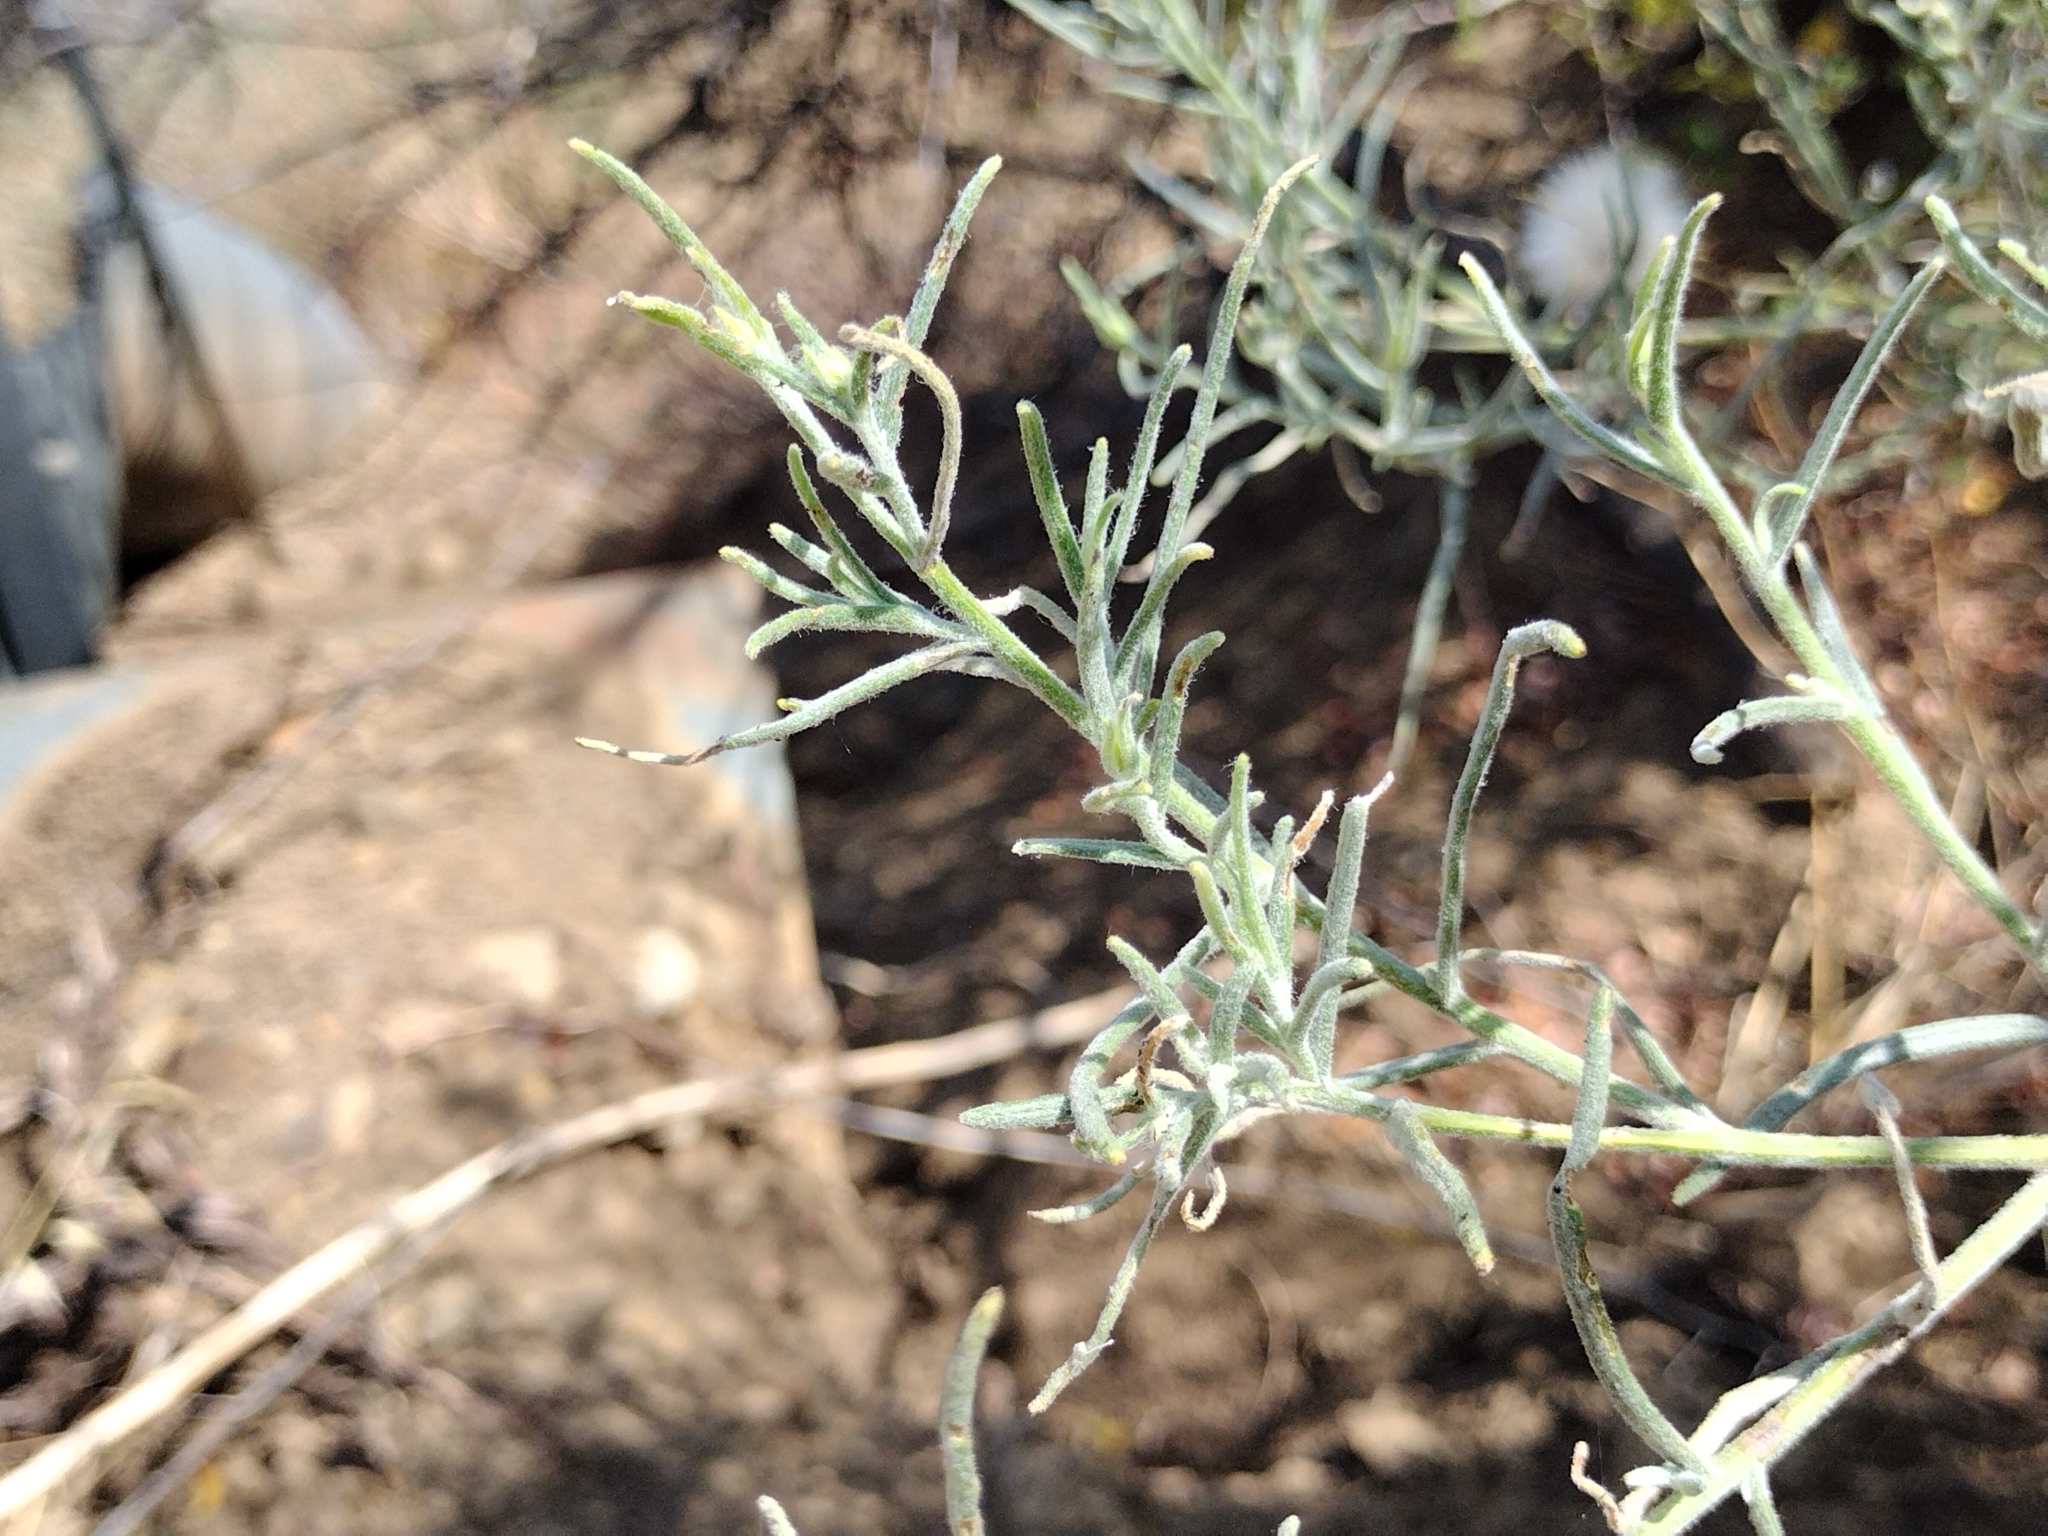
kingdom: Plantae
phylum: Tracheophyta
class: Magnoliopsida
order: Asterales
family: Asteraceae
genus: Senecio
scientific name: Senecio flaccidus
